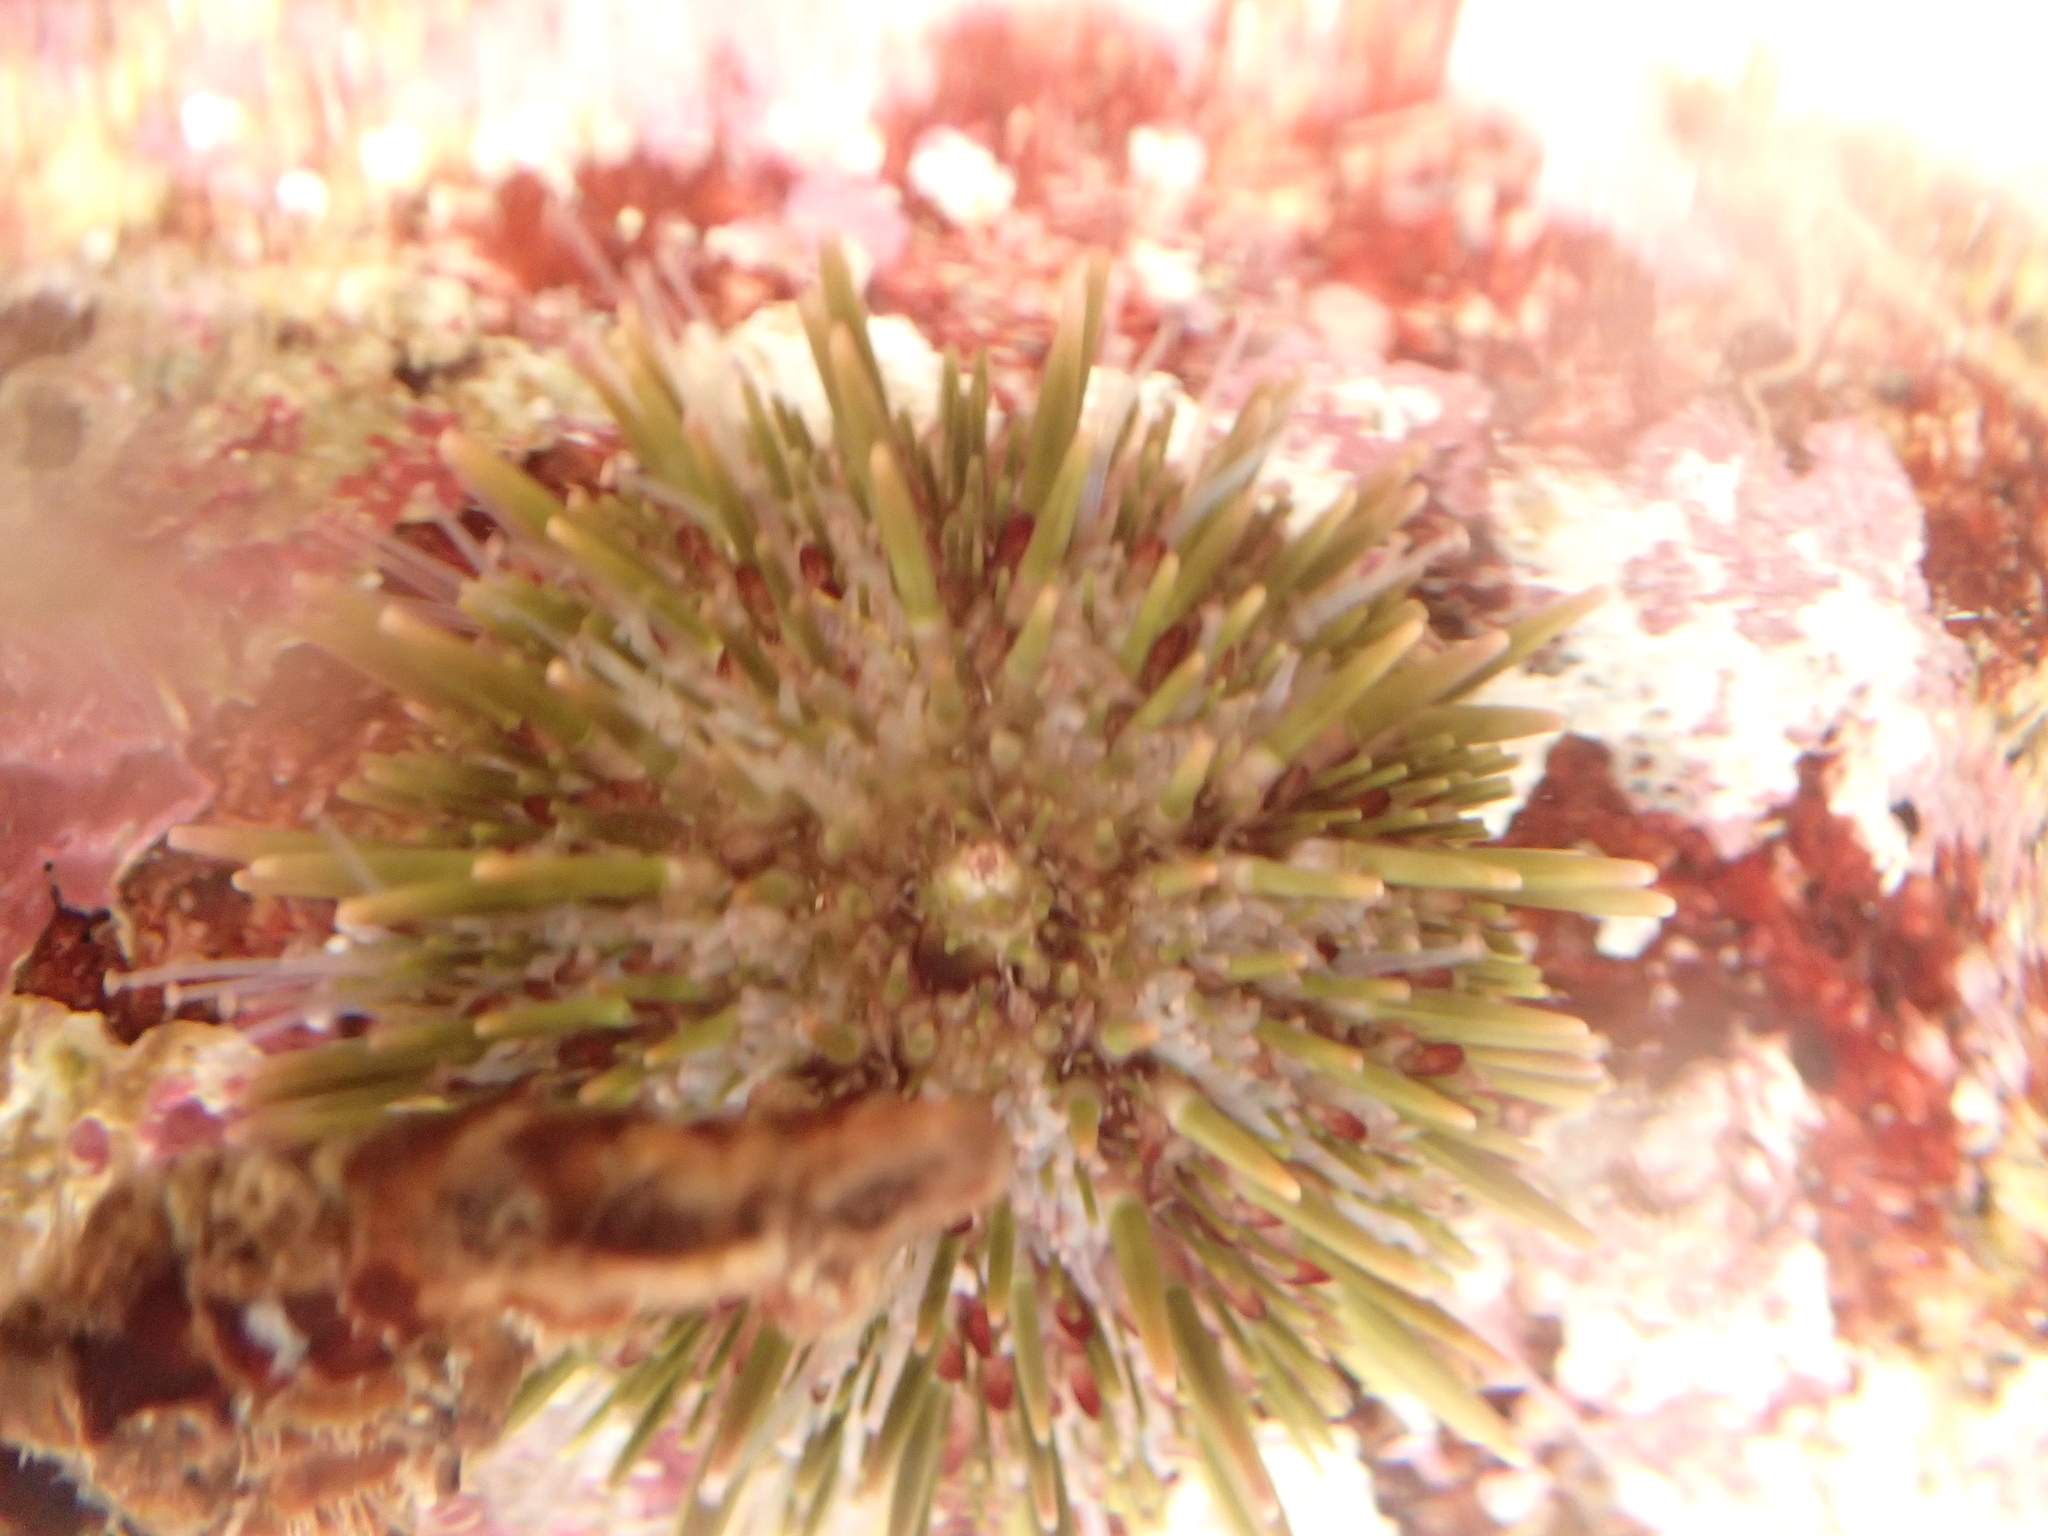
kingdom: Animalia
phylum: Echinodermata
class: Echinoidea
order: Camarodonta
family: Strongylocentrotidae
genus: Strongylocentrotus
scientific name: Strongylocentrotus purpuratus
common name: Purple sea urchin
